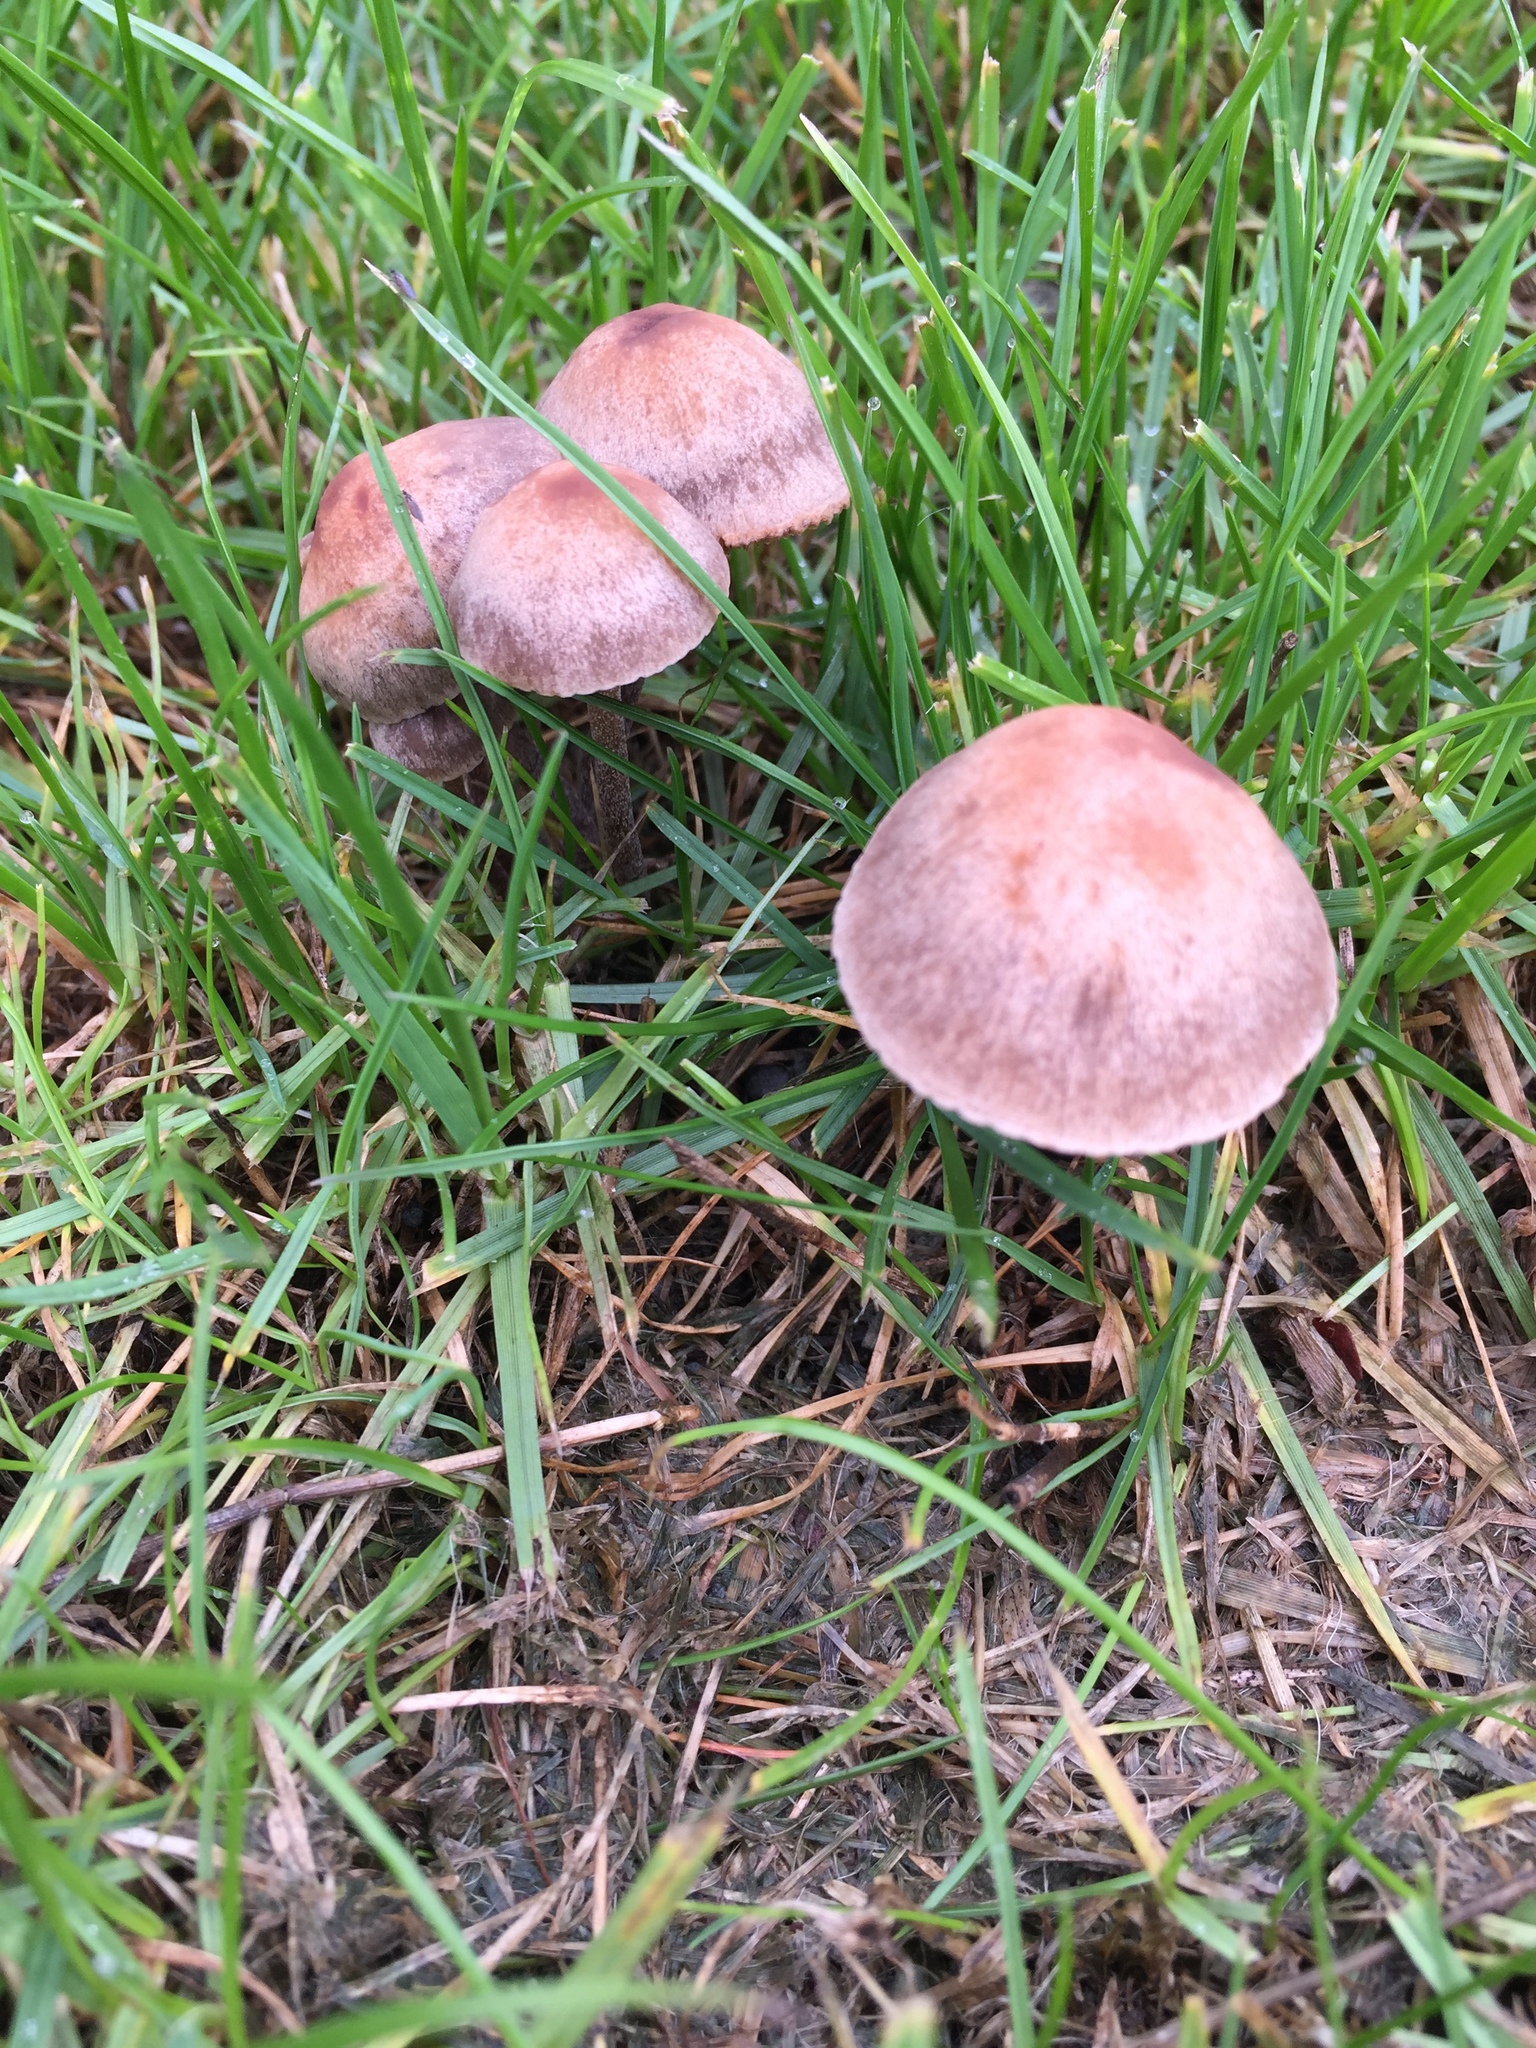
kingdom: Fungi
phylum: Basidiomycota
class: Agaricomycetes
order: Agaricales
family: Bolbitiaceae
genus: Panaeolina
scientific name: Panaeolina foenisecii
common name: Brown hay cap
